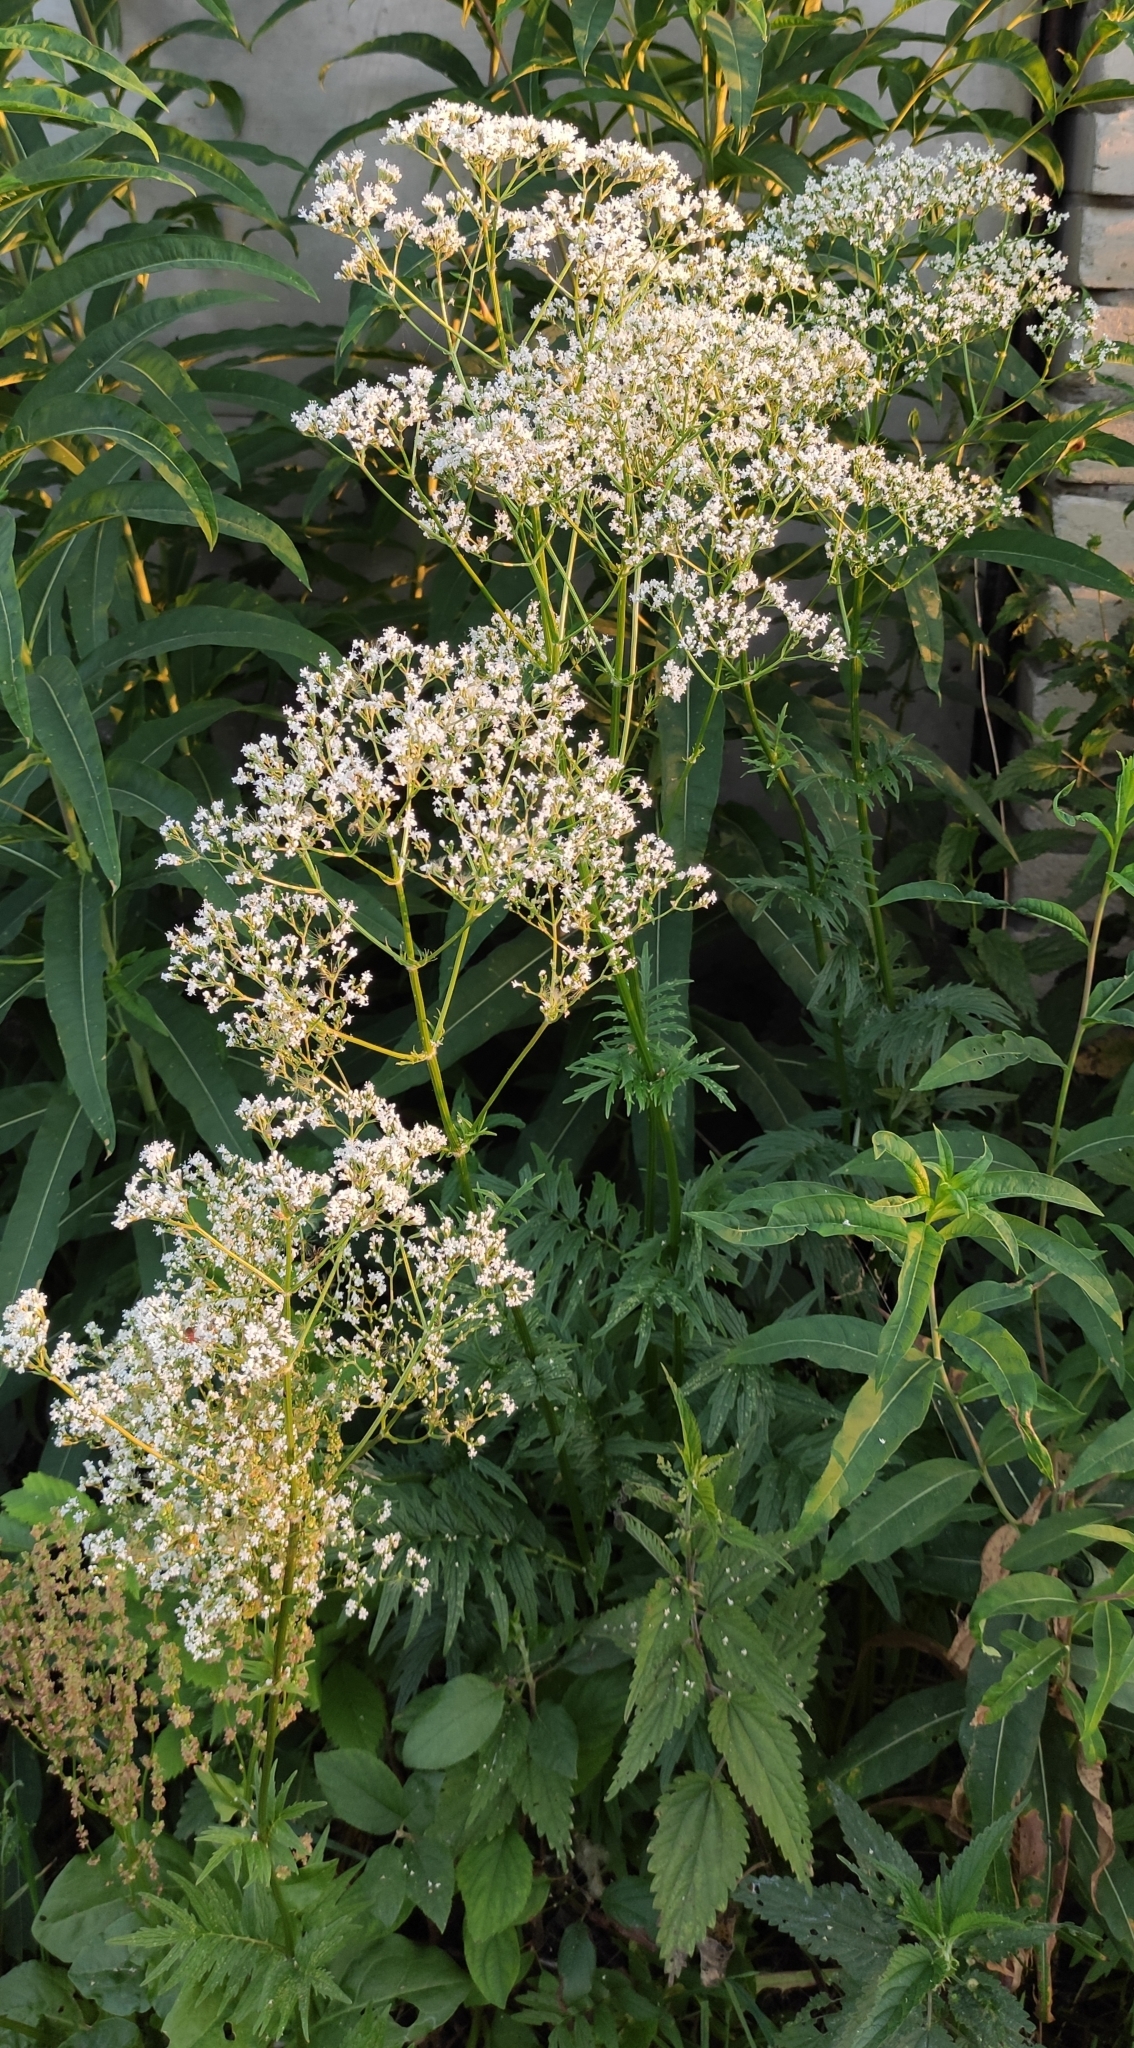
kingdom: Plantae
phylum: Tracheophyta
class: Magnoliopsida
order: Dipsacales
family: Caprifoliaceae
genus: Valeriana
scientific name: Valeriana officinalis
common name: Common valerian
